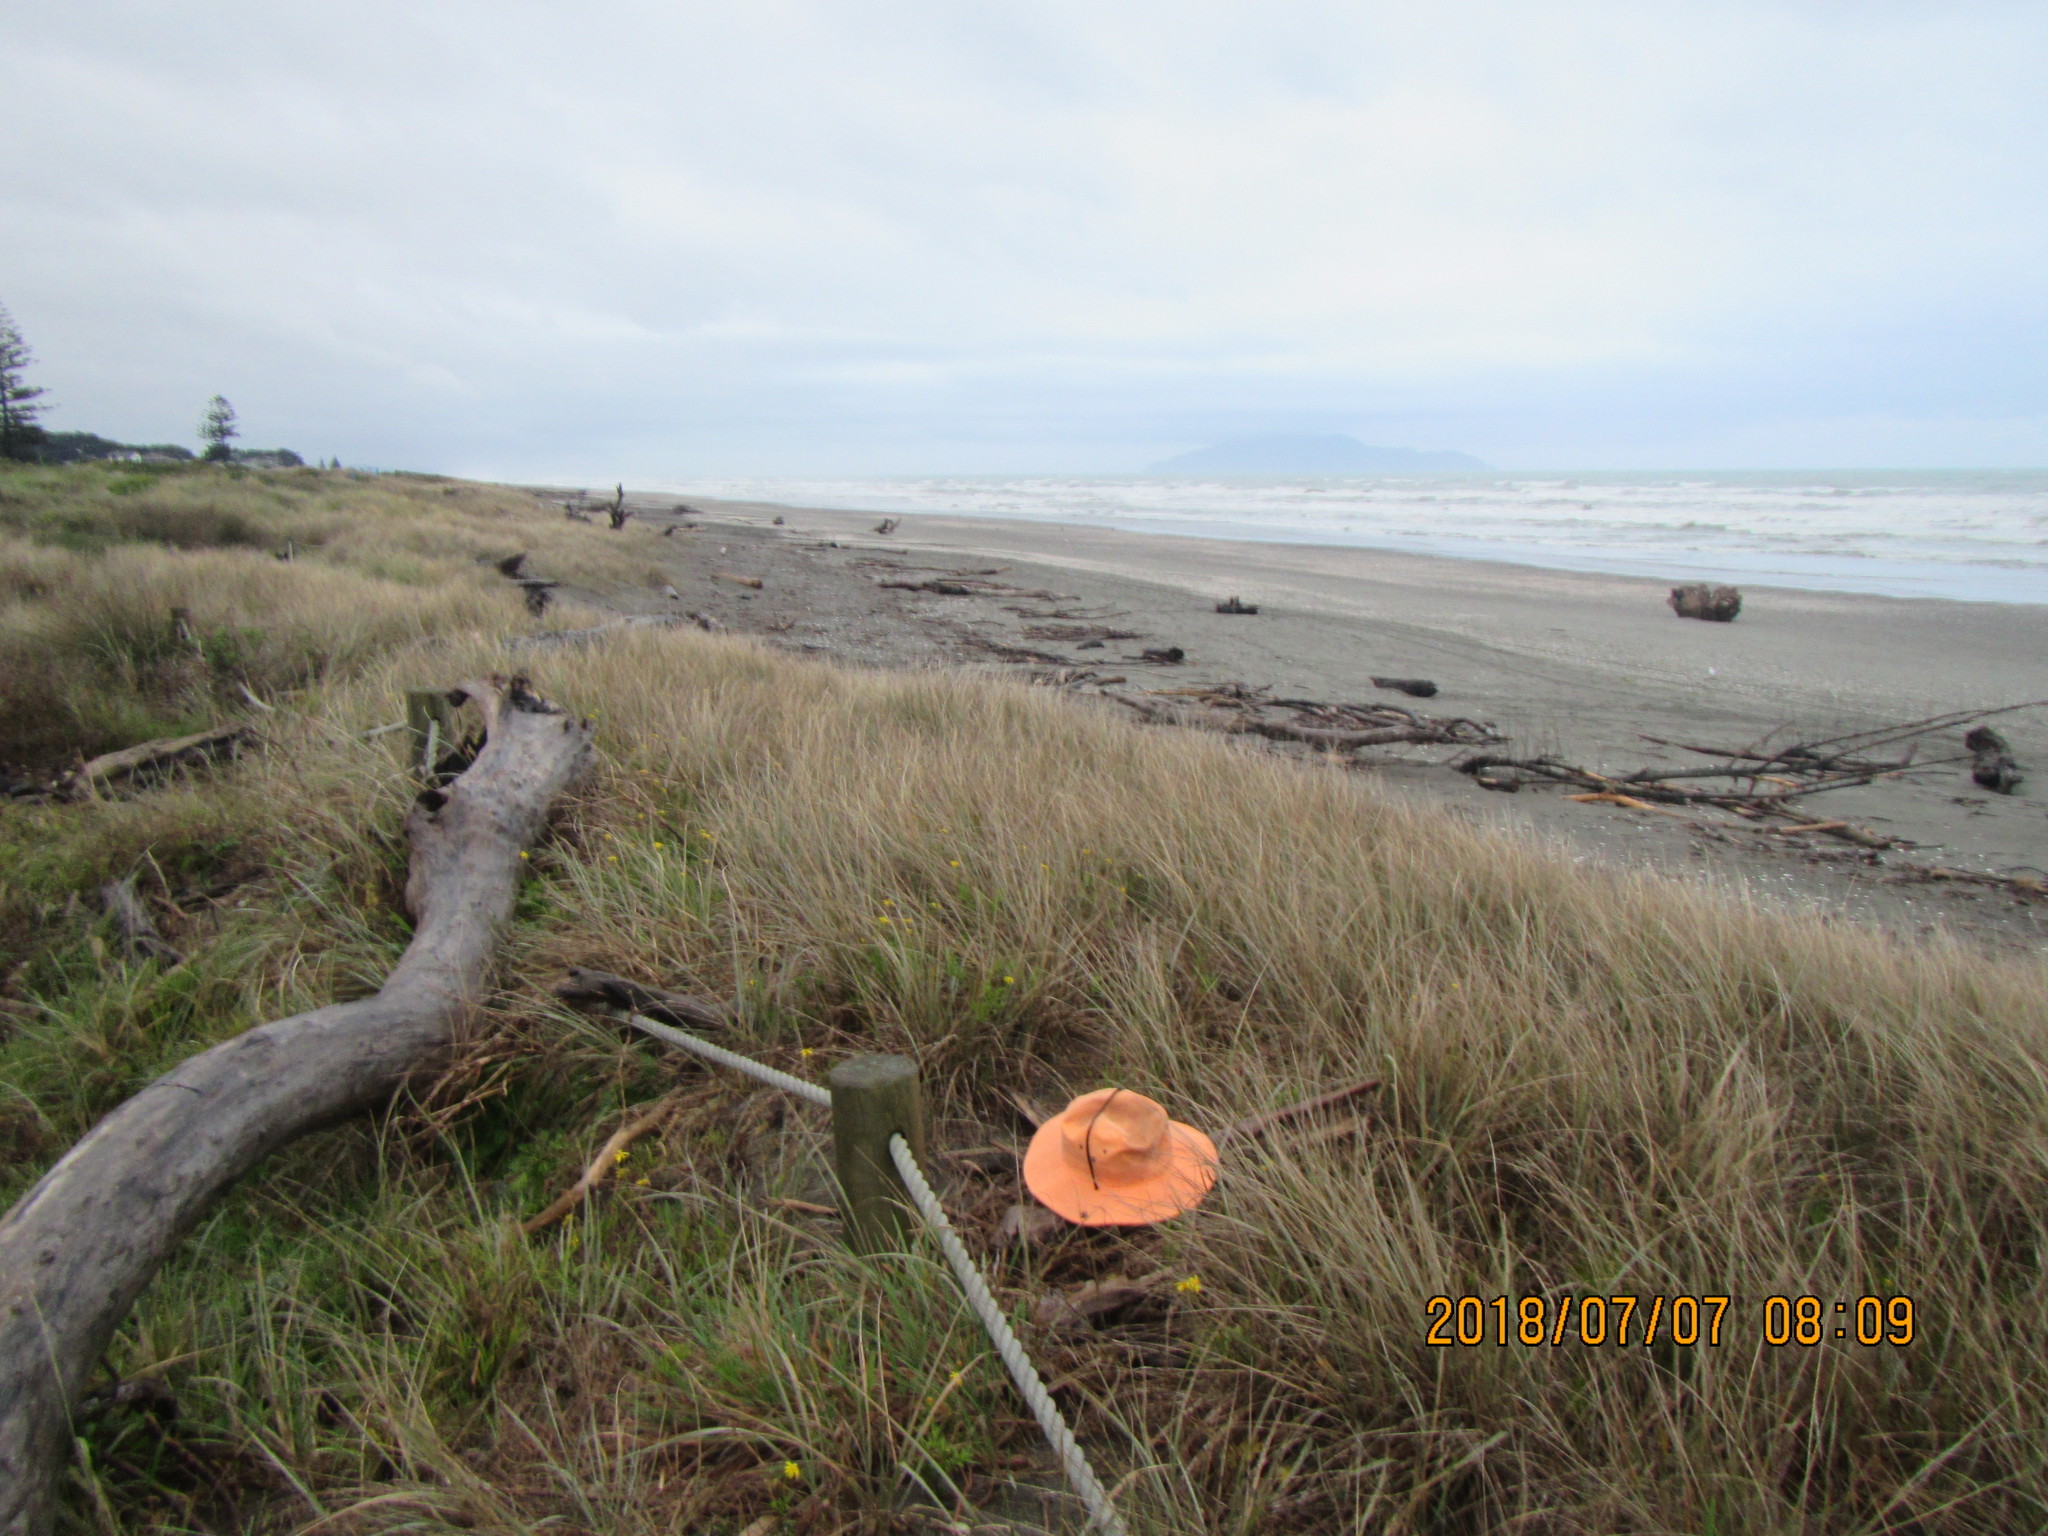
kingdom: Animalia
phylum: Mollusca
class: Gastropoda
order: Stylommatophora
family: Geomitridae
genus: Xeroplexa
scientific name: Xeroplexa intersecta
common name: Wrinkled snail
